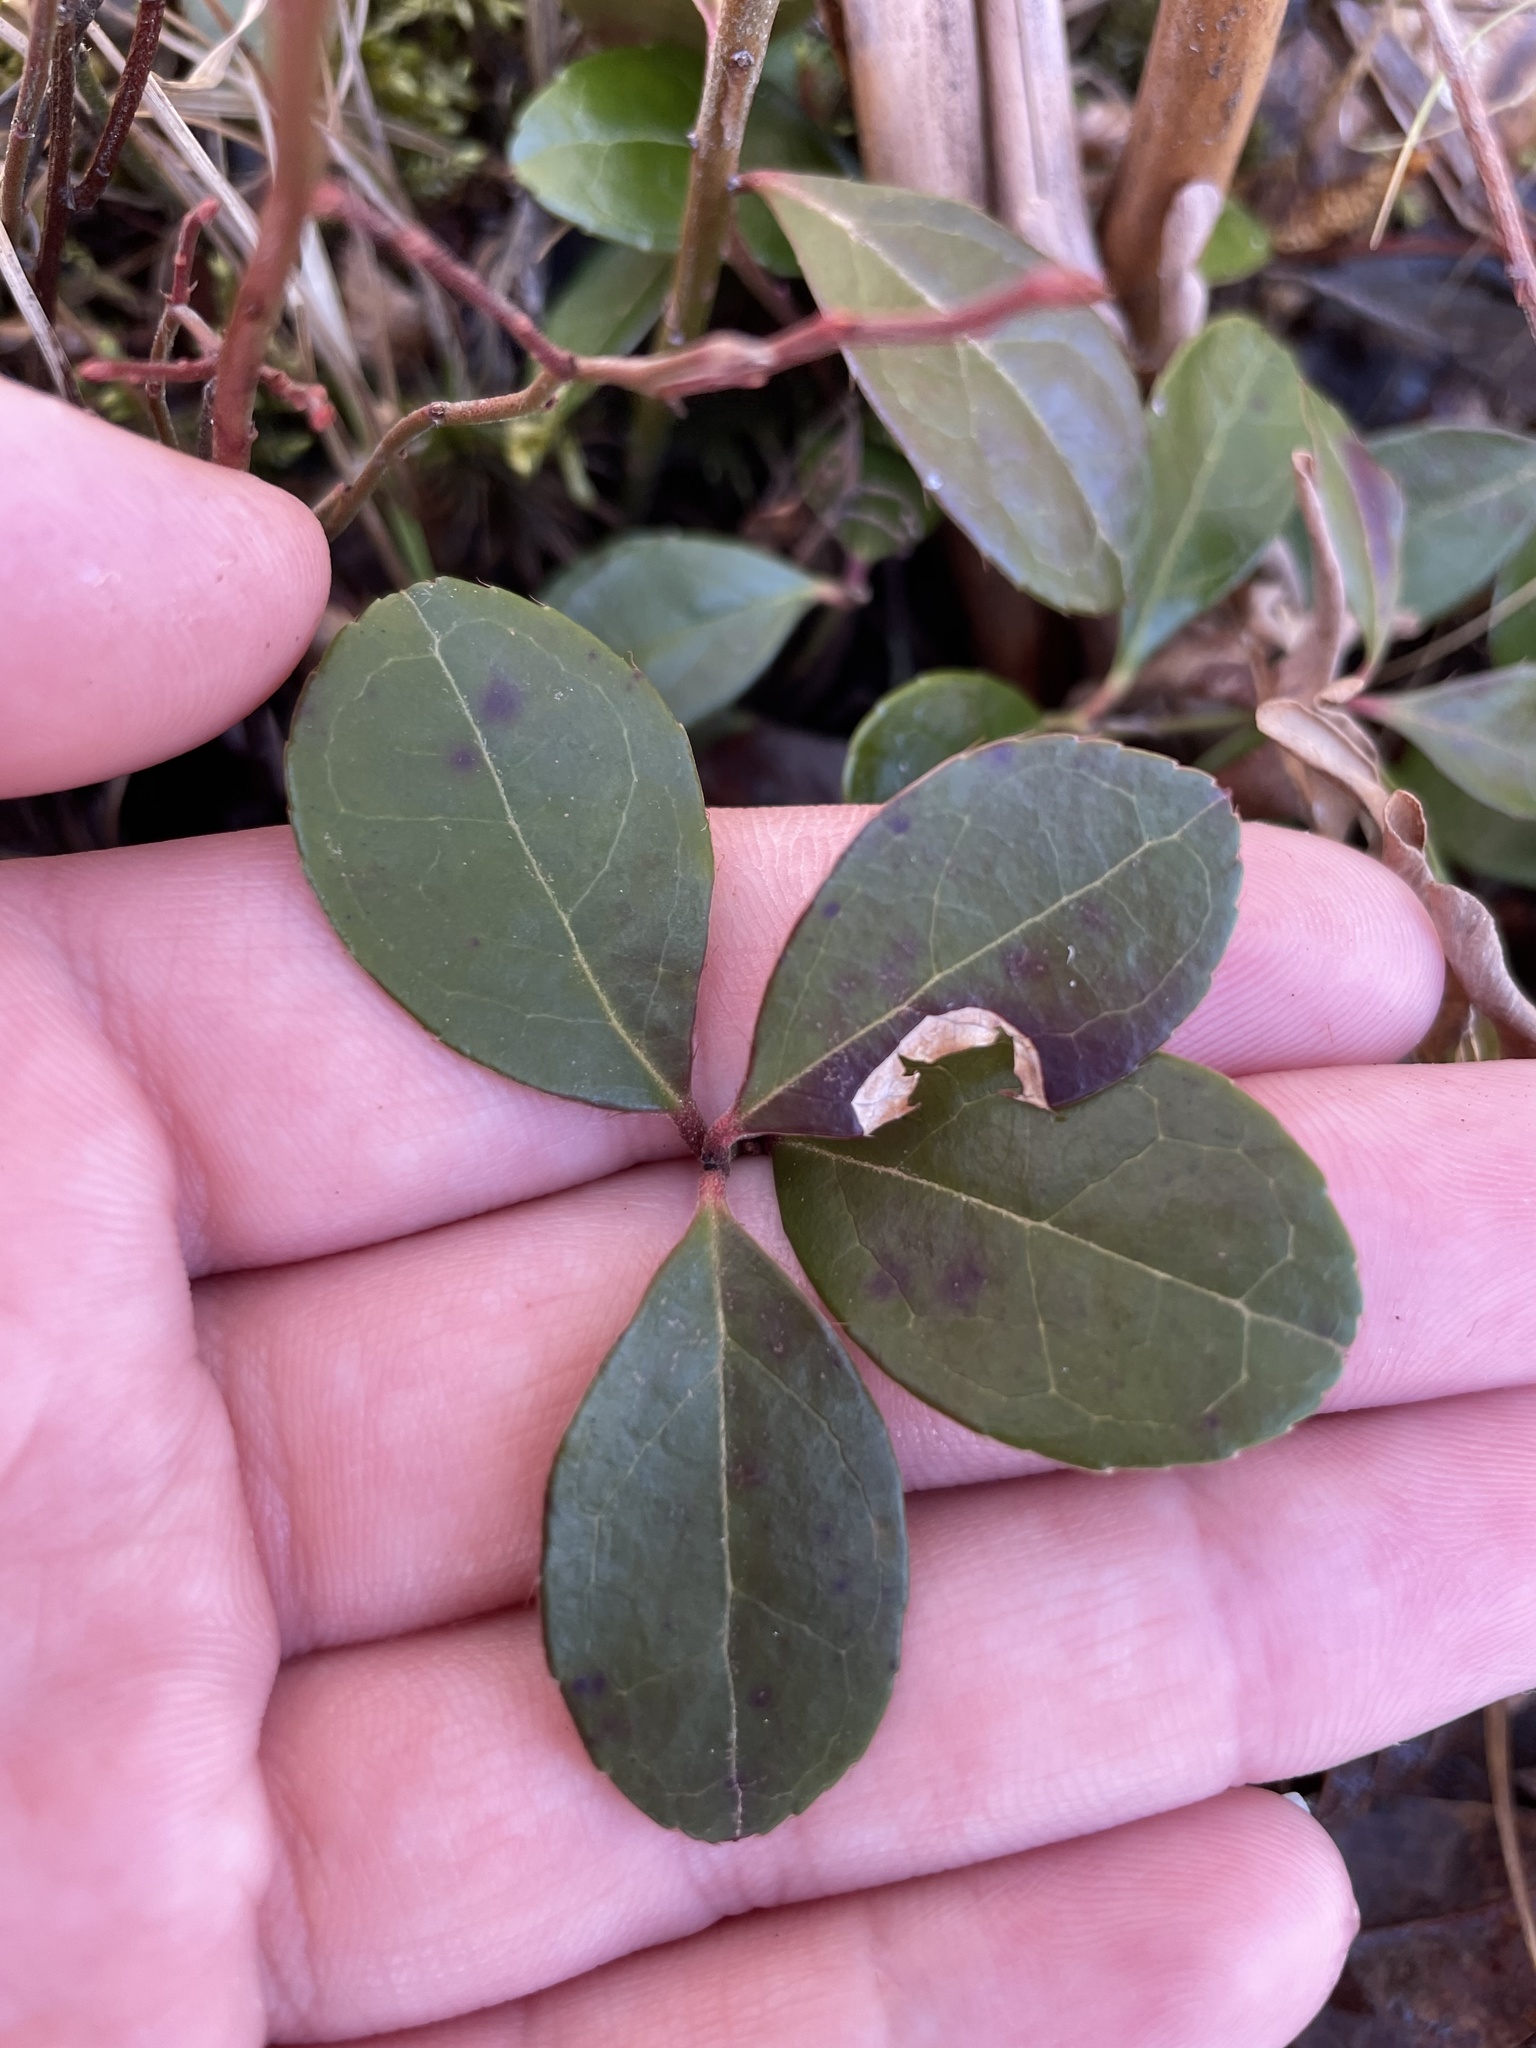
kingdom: Plantae
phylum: Tracheophyta
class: Magnoliopsida
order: Ericales
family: Ericaceae
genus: Gaultheria
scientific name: Gaultheria procumbens
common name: Checkerberry
